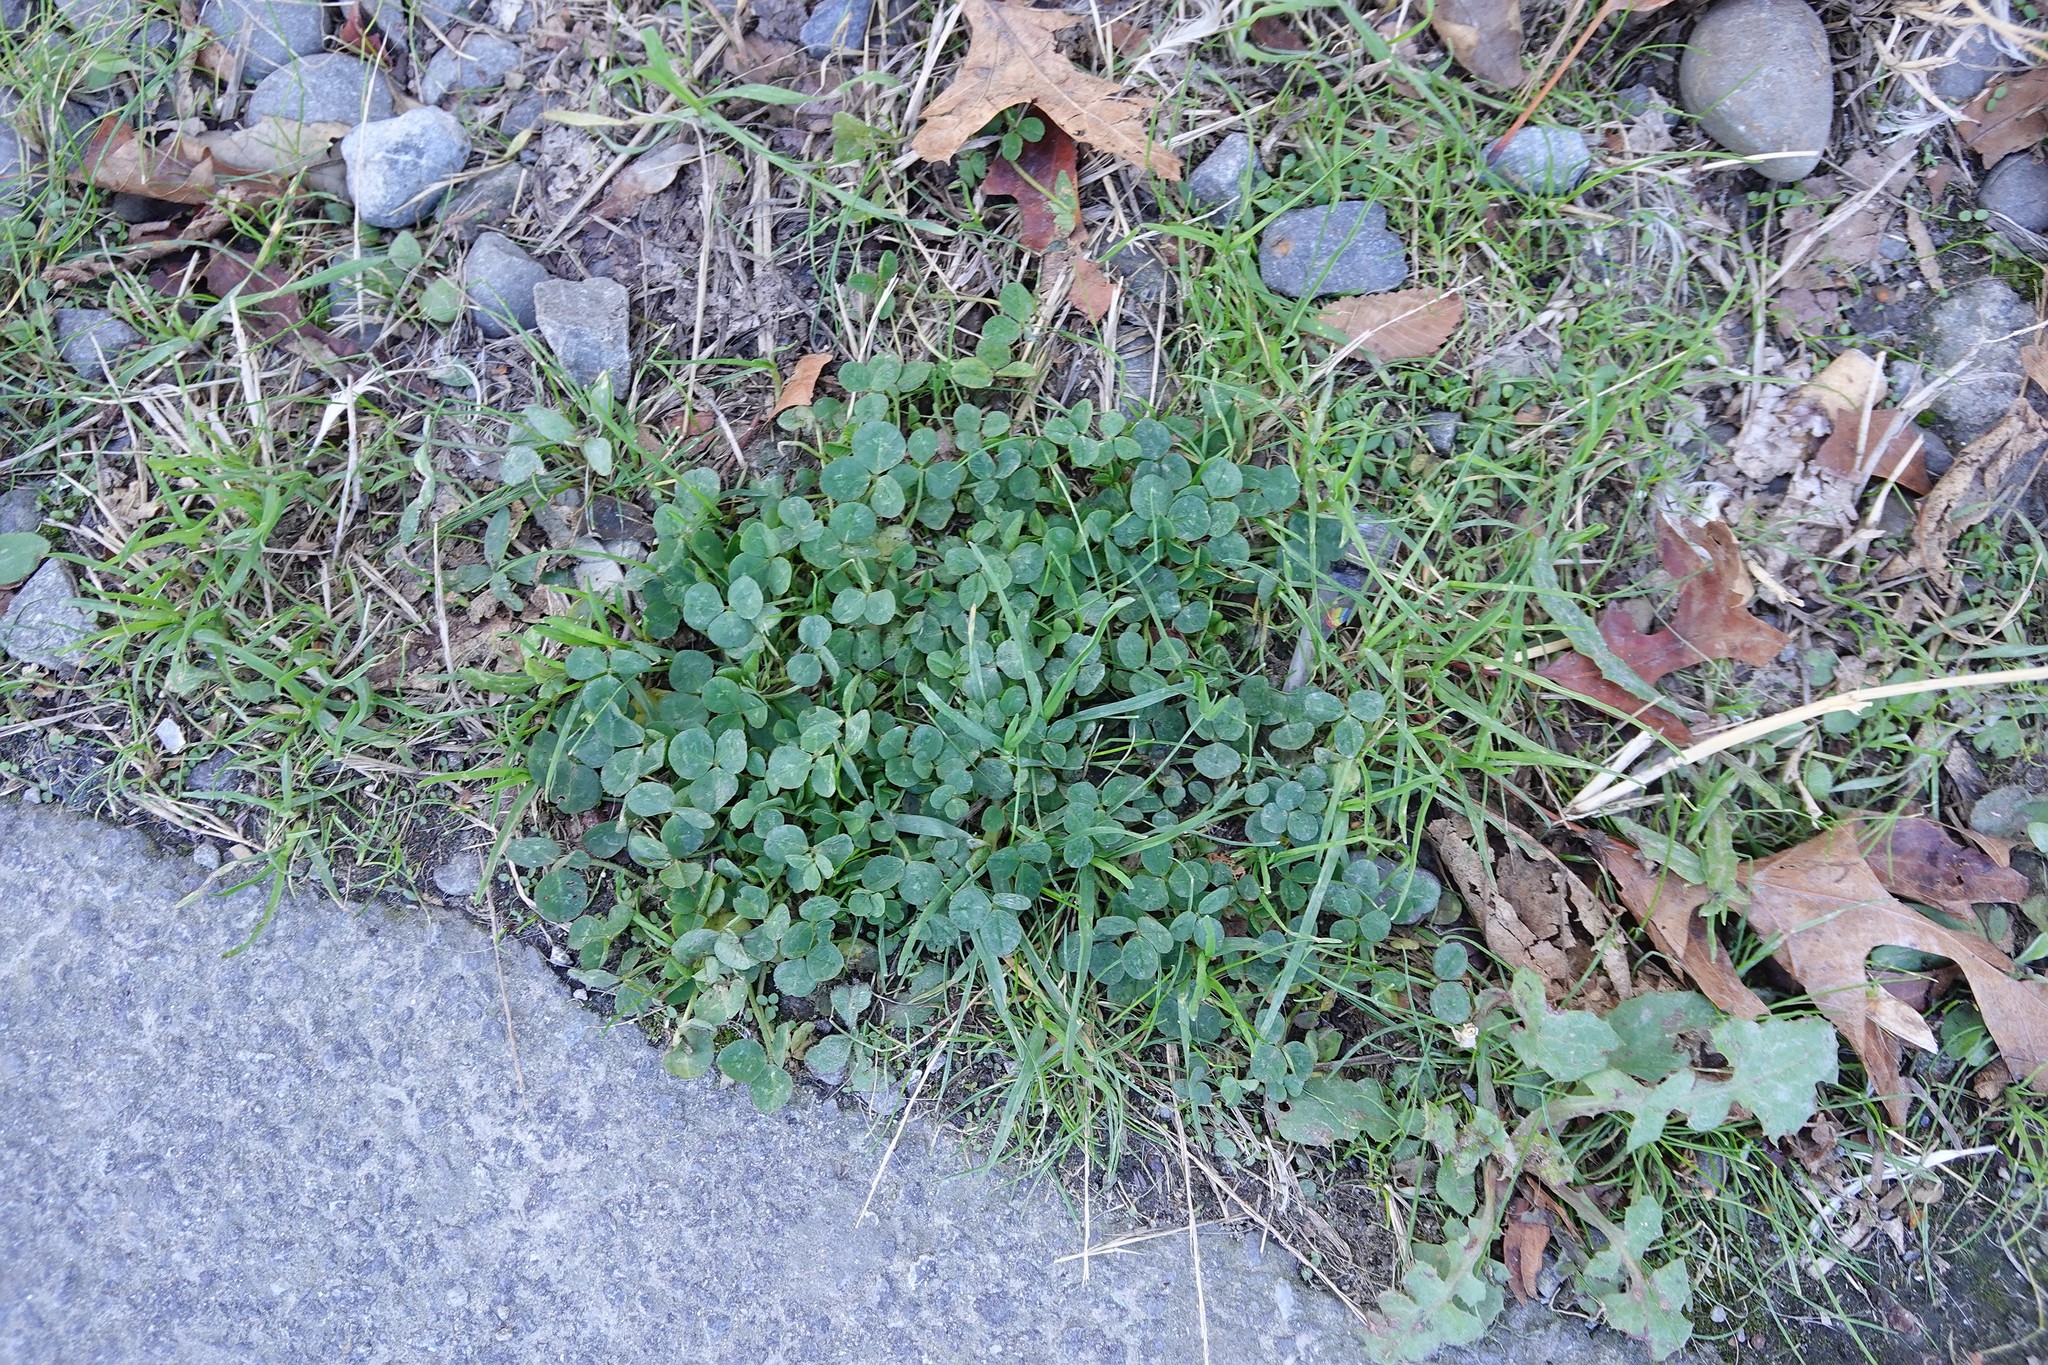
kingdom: Plantae
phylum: Tracheophyta
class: Magnoliopsida
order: Fabales
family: Fabaceae
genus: Trifolium
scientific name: Trifolium repens
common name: White clover
